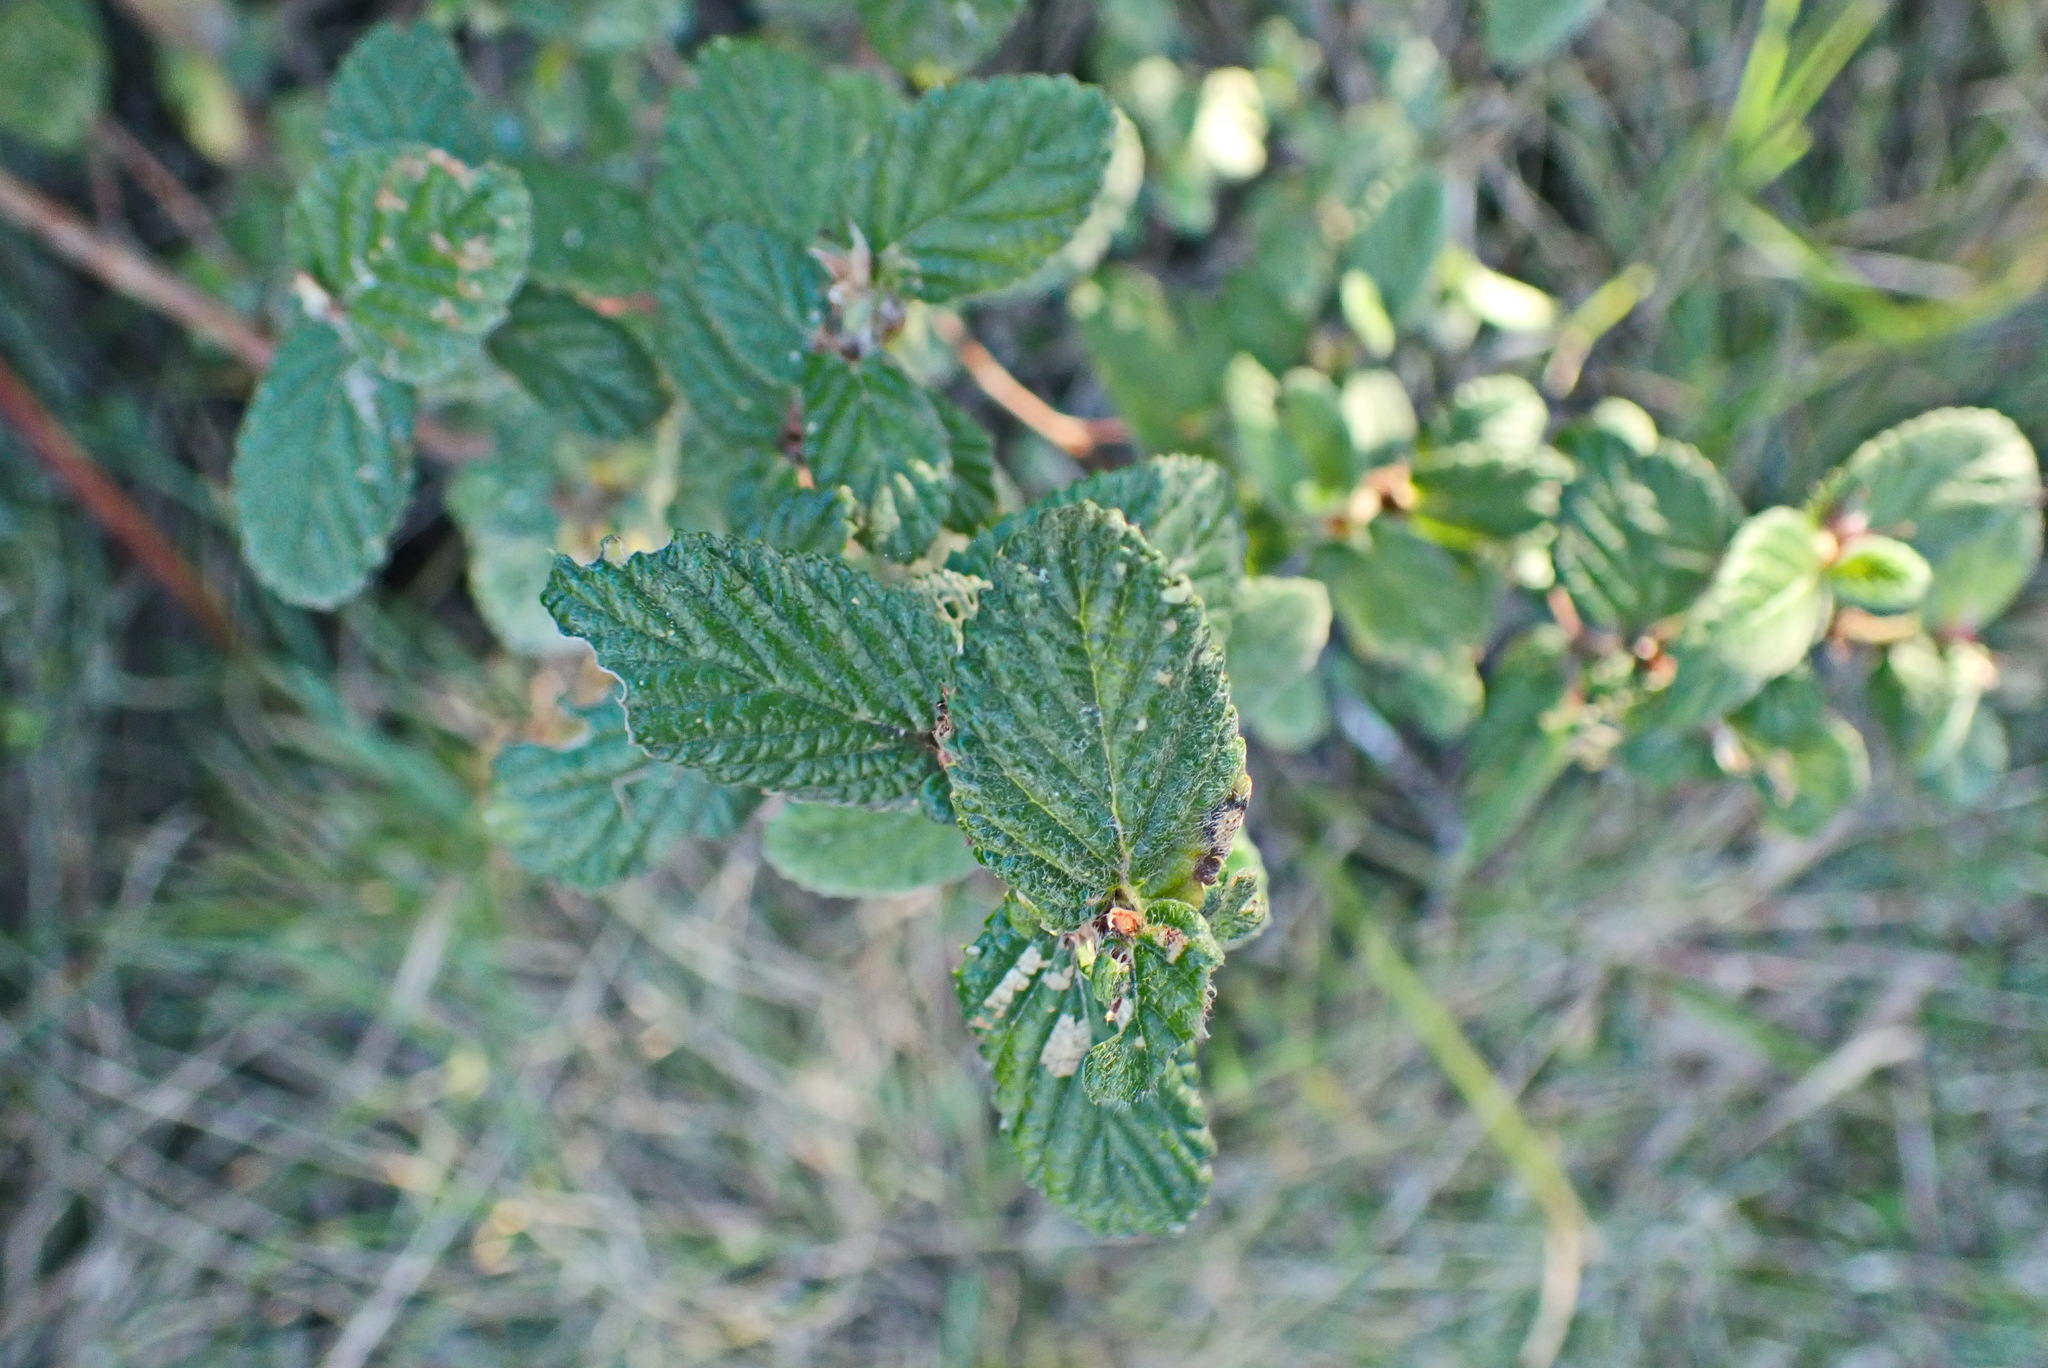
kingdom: Plantae
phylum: Tracheophyta
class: Magnoliopsida
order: Rosales
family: Rosaceae
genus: Cliffortia
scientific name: Cliffortia odorata
